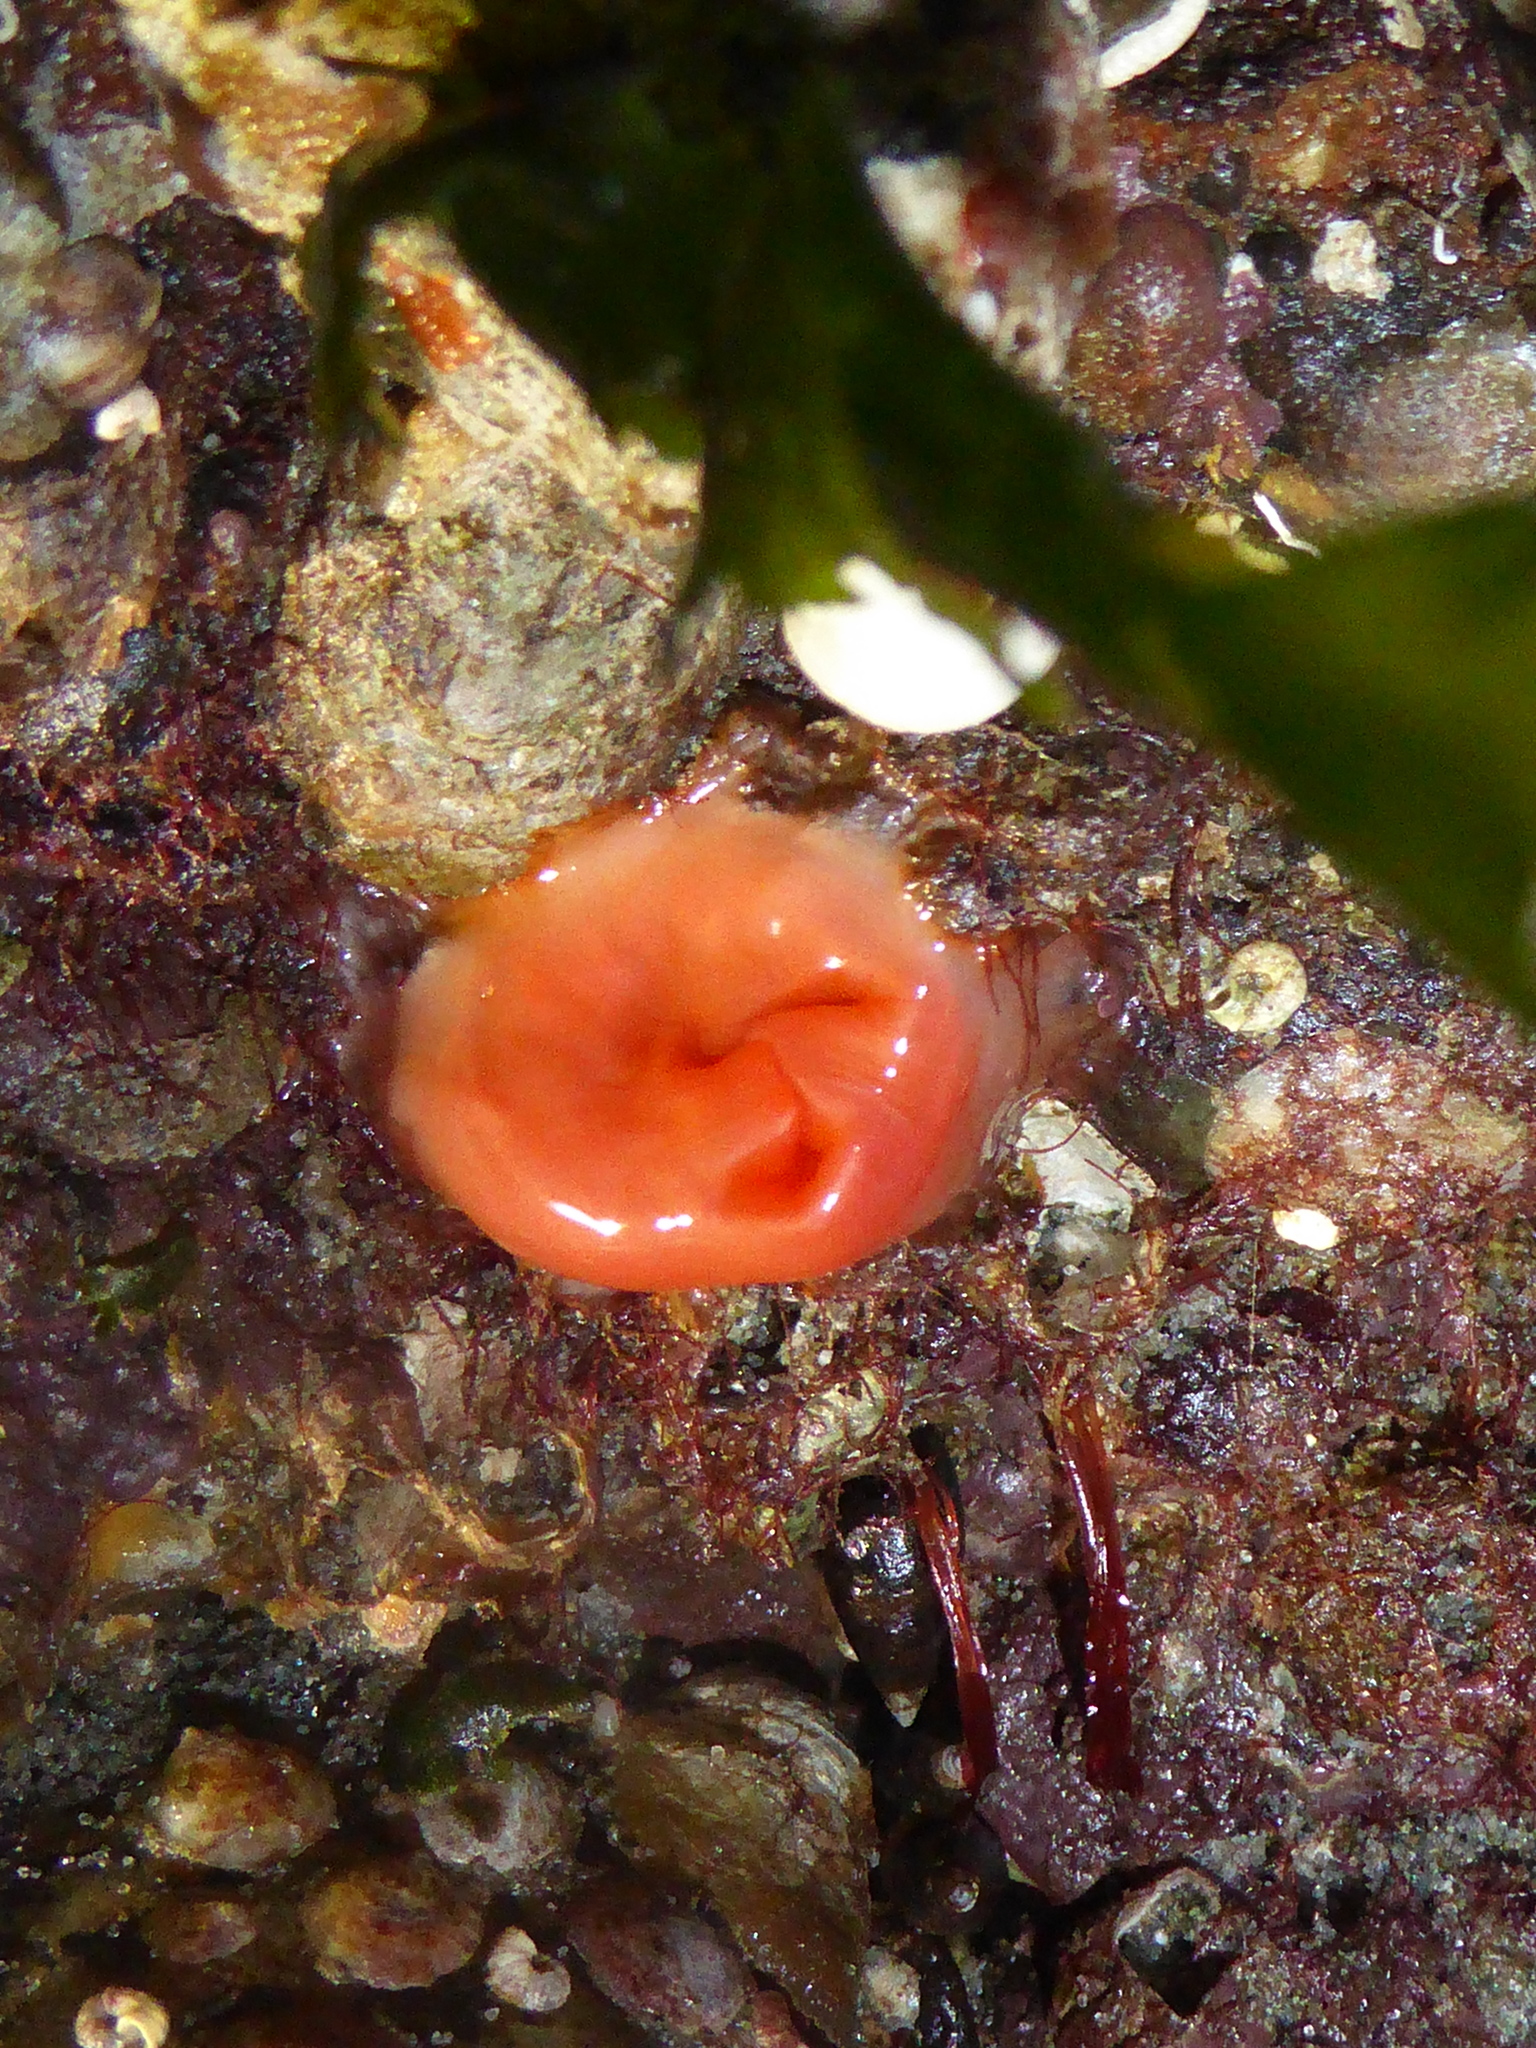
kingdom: Animalia
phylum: Chordata
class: Ascidiacea
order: Stolidobranchia
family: Styelidae
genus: Cnemidocarpa
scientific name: Cnemidocarpa finmarkiensis
